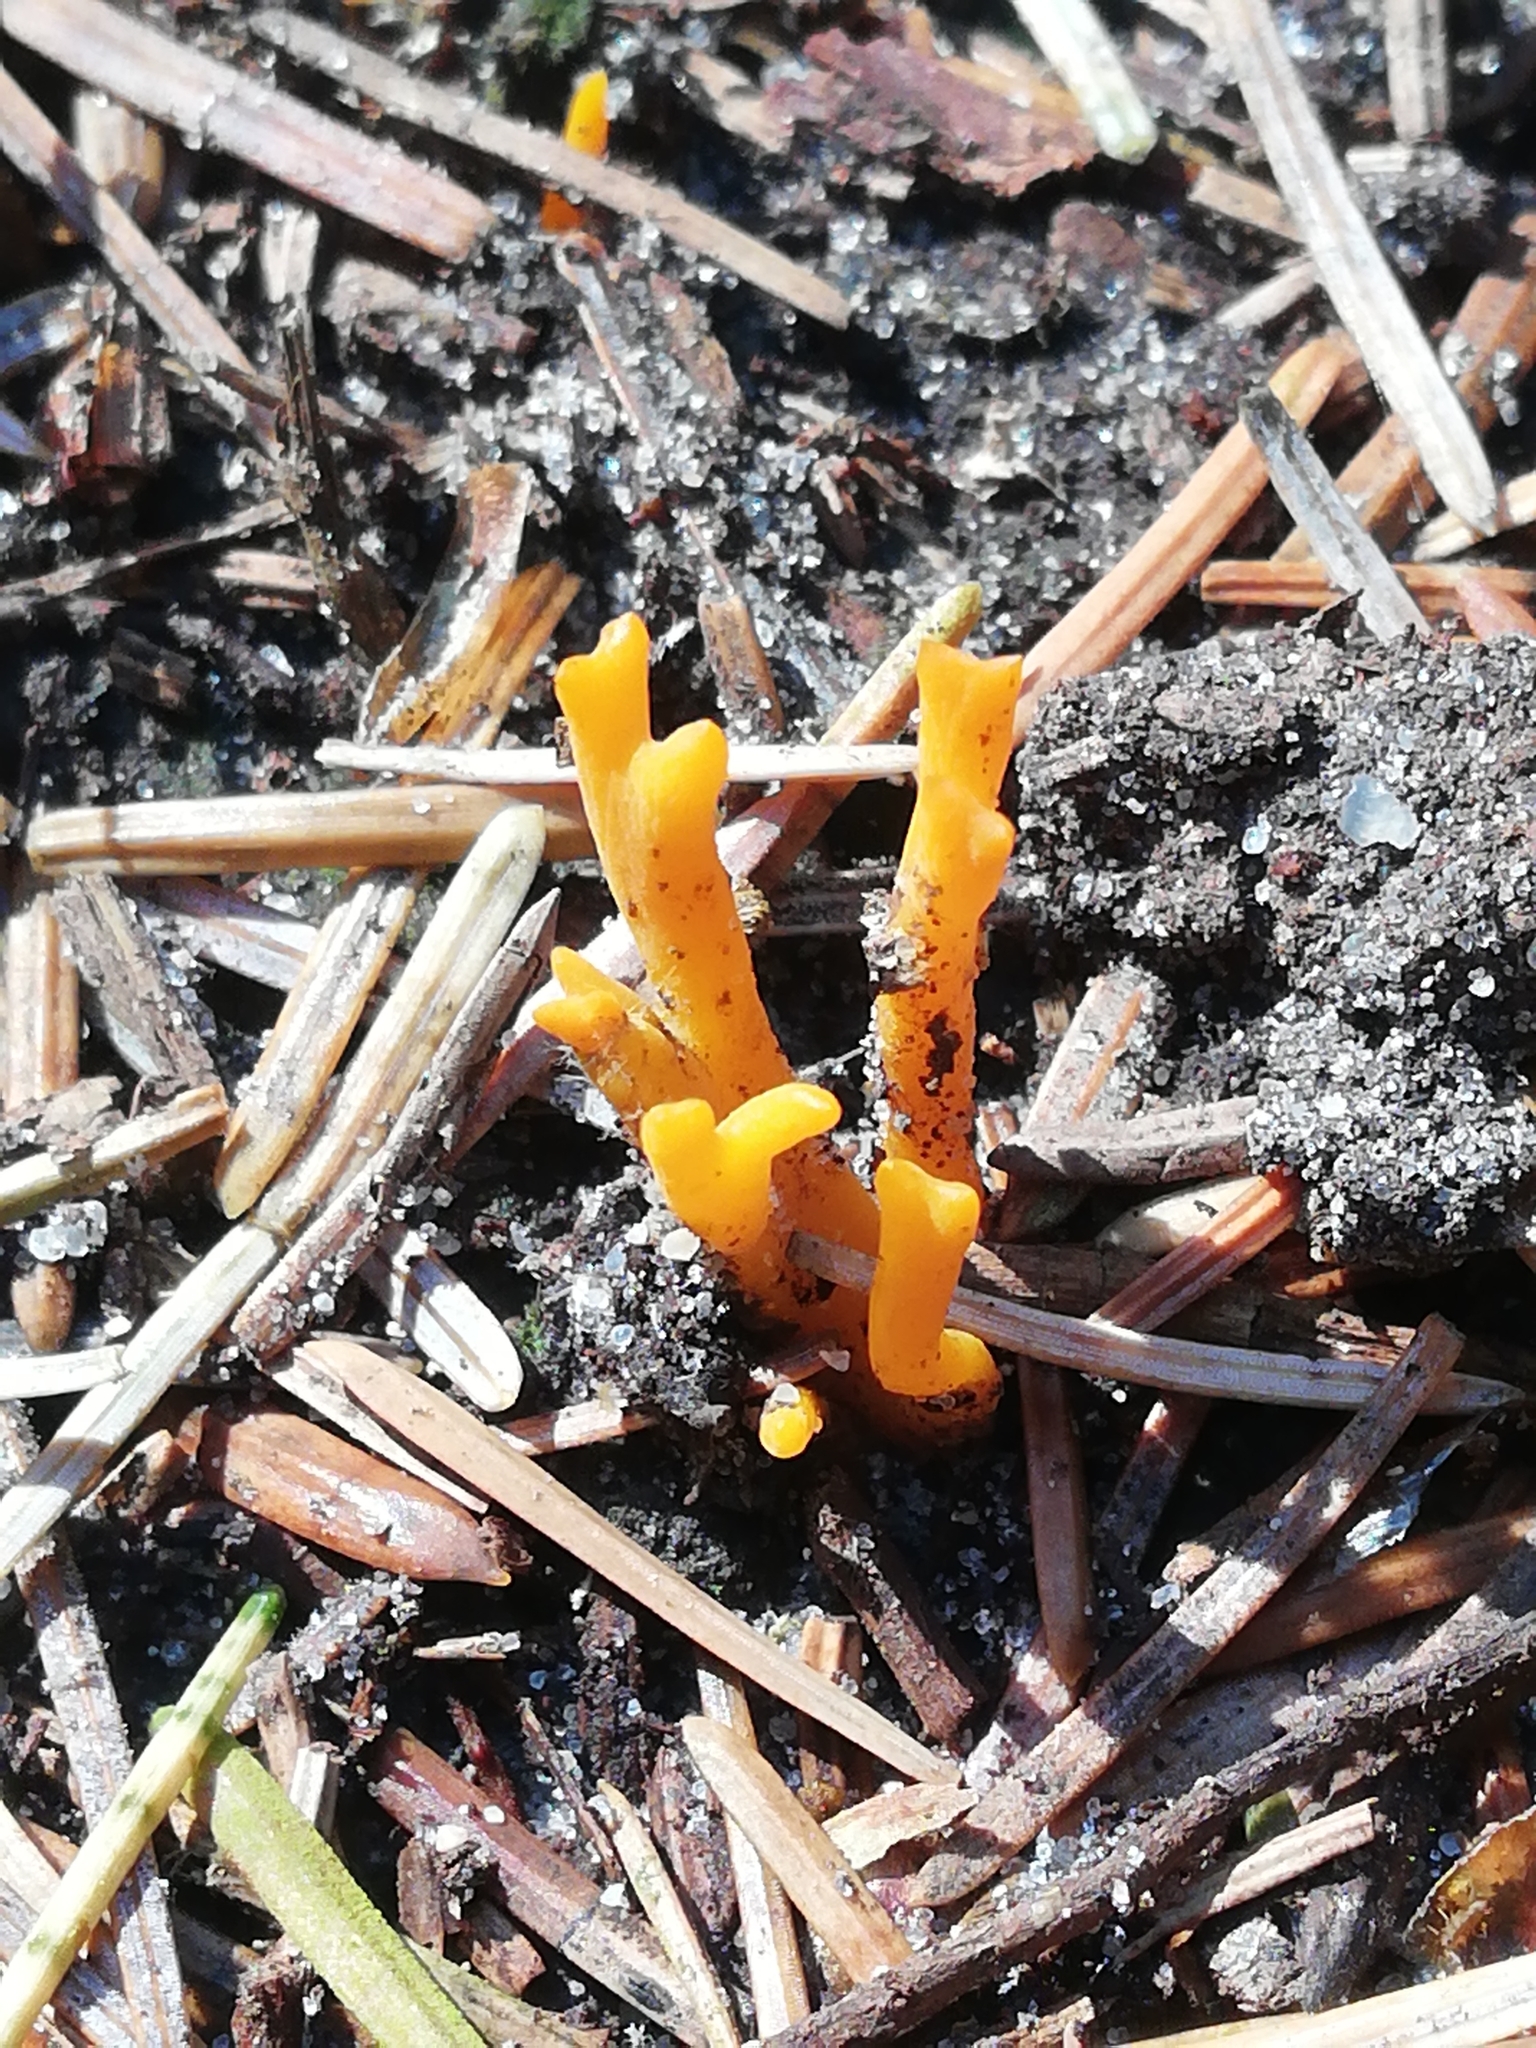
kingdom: Fungi
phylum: Basidiomycota
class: Dacrymycetes
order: Dacrymycetales
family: Dacrymycetaceae
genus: Calocera
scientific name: Calocera viscosa
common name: Yellow stagshorn
